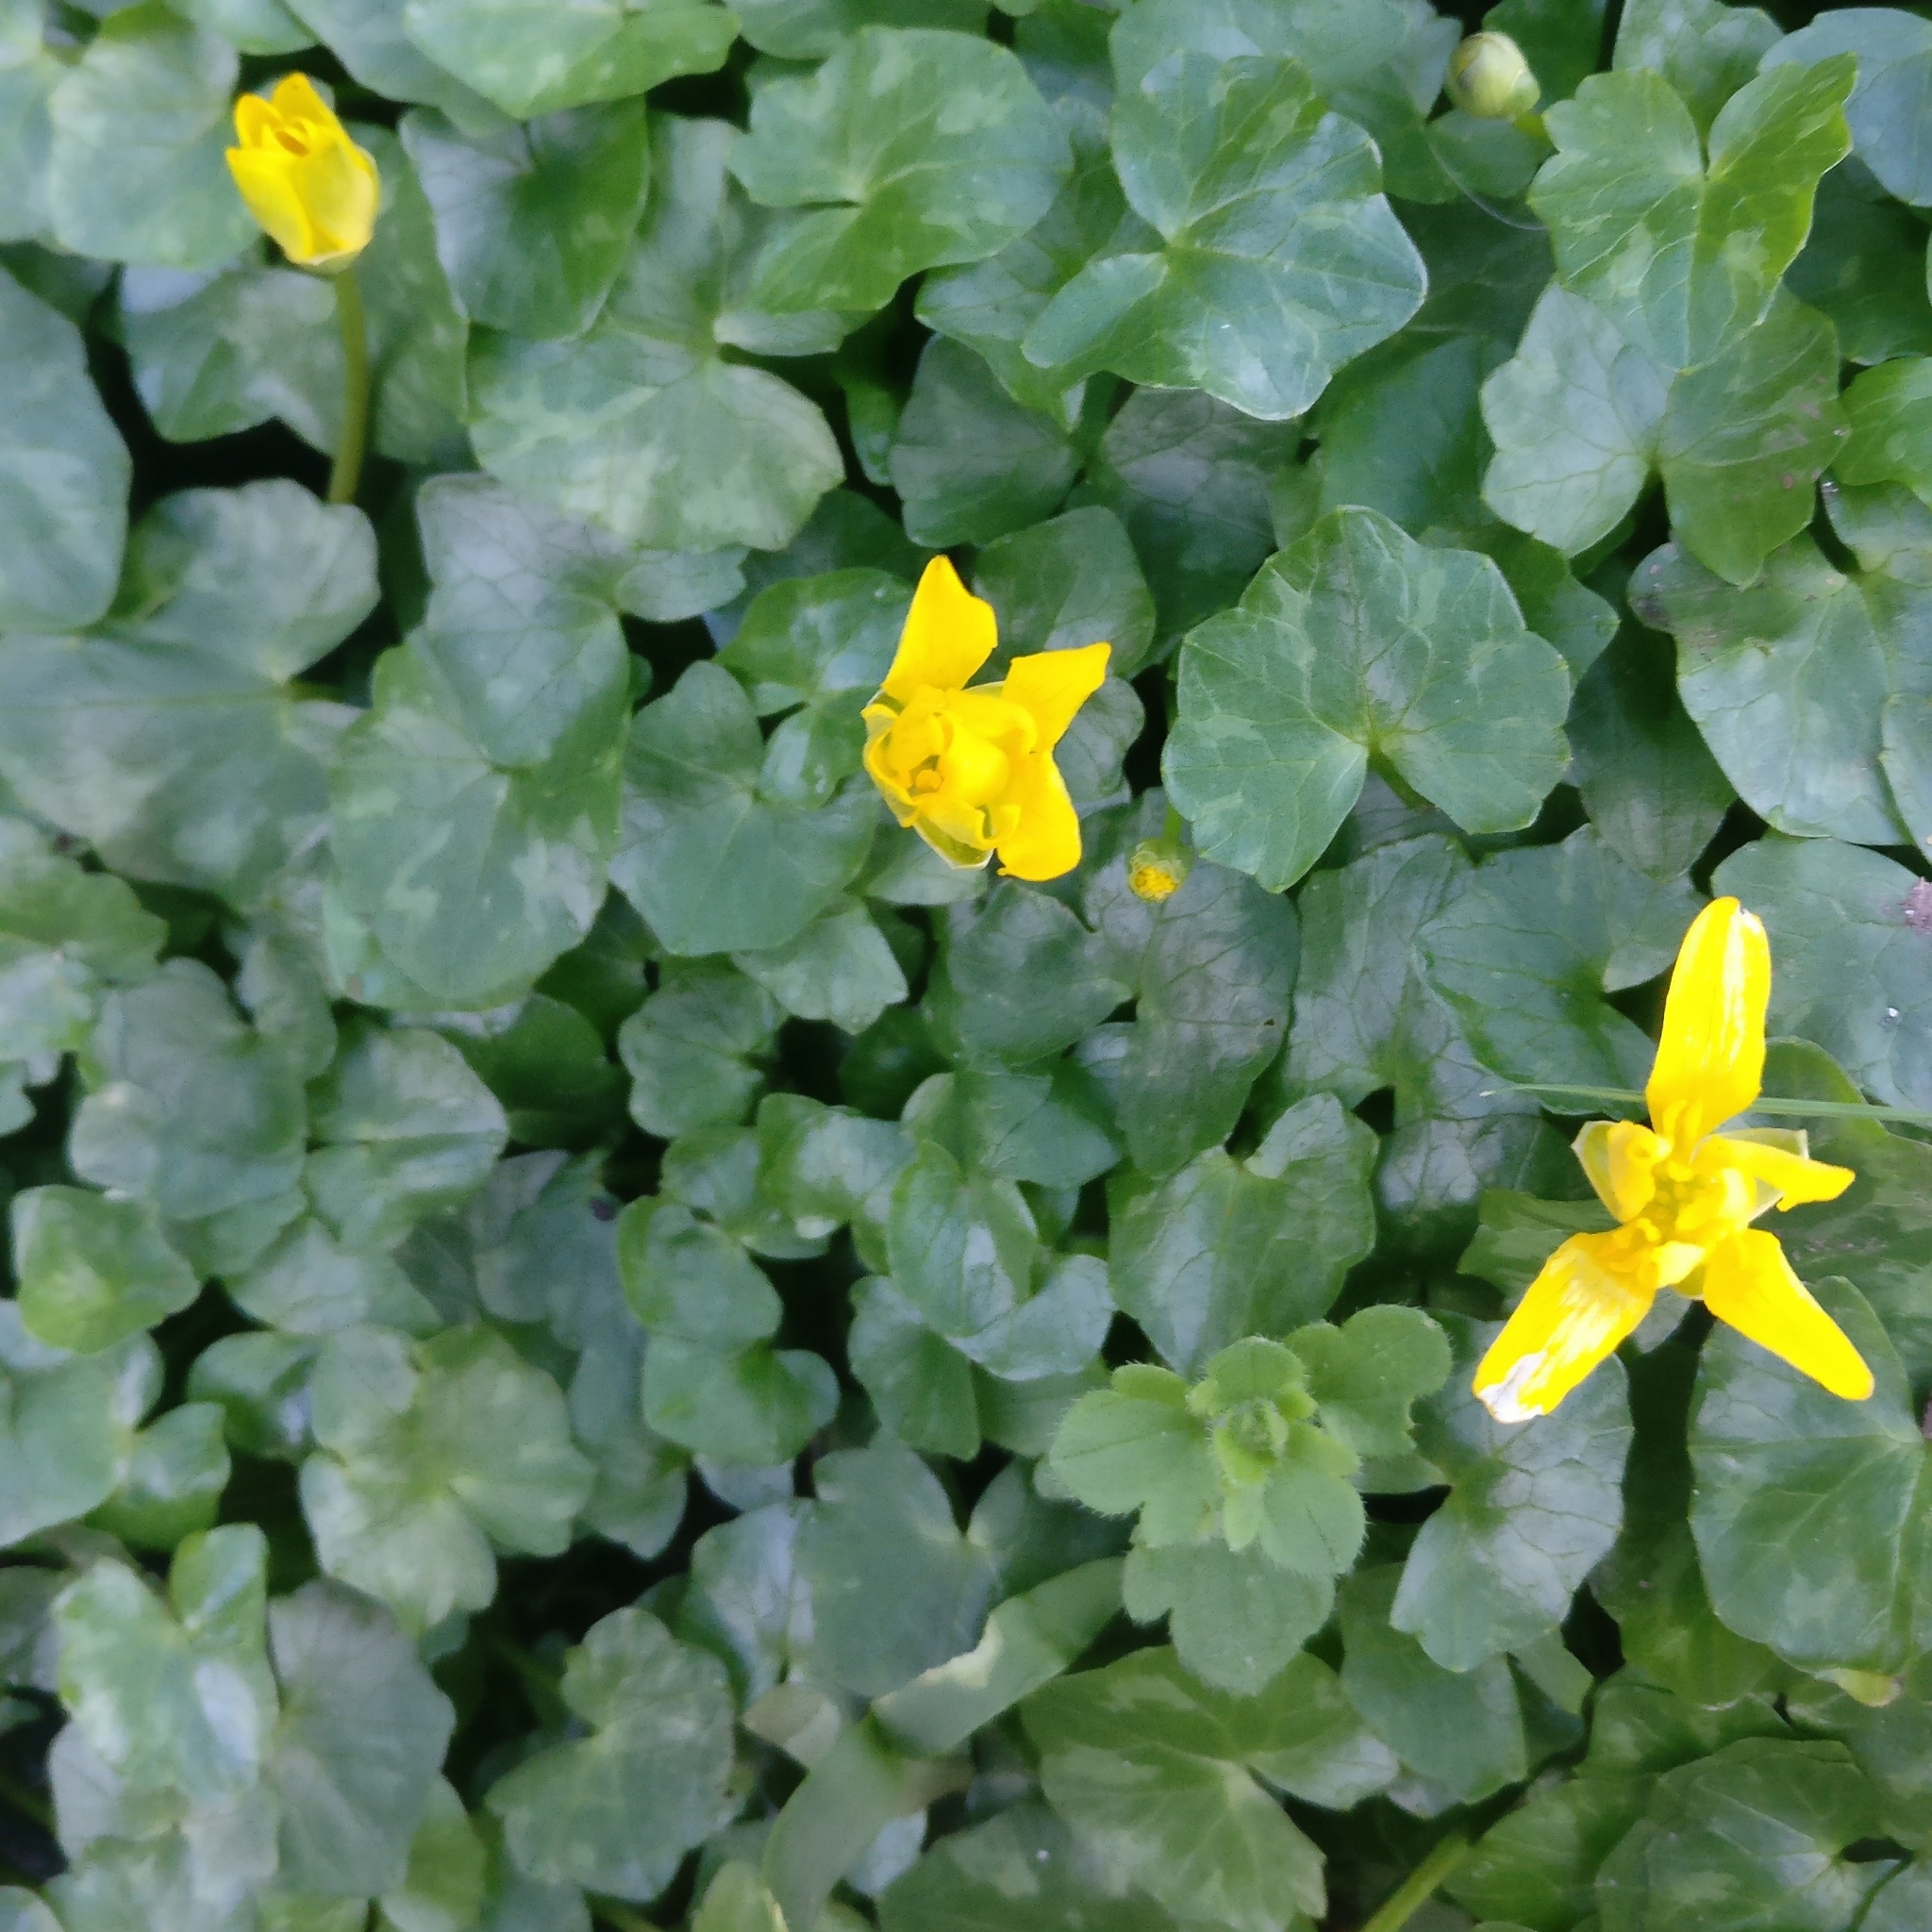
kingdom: Plantae
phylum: Tracheophyta
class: Magnoliopsida
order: Ranunculales
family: Ranunculaceae
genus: Ficaria
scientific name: Ficaria verna
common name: Lesser celandine
